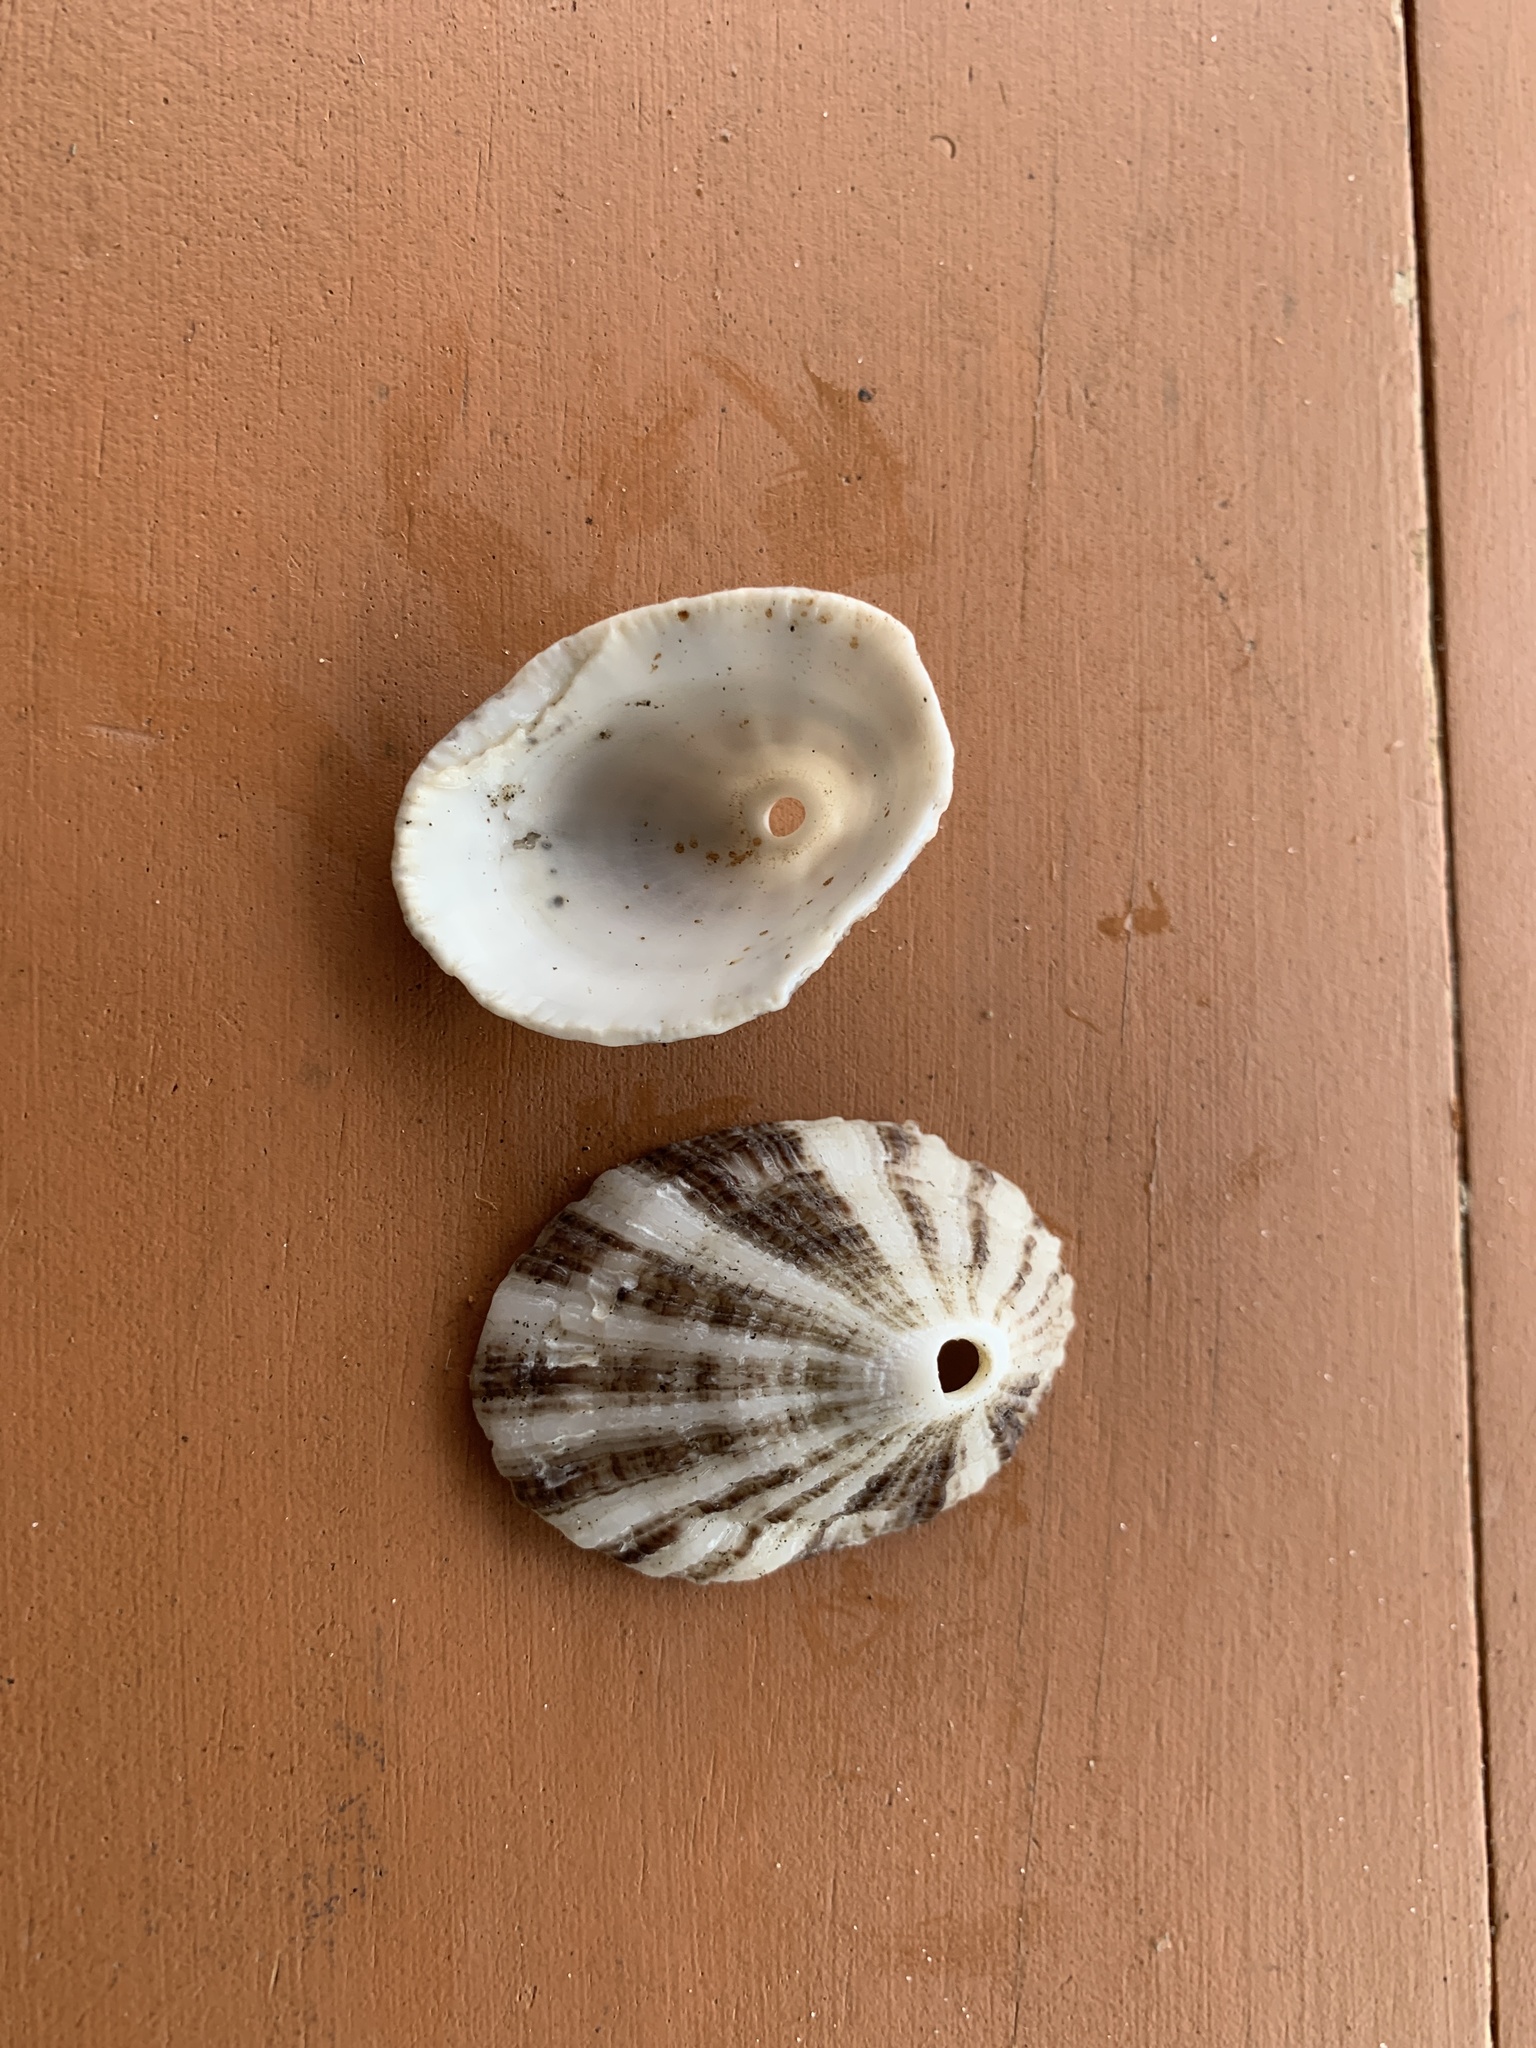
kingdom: Animalia
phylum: Mollusca
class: Gastropoda
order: Lepetellida
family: Fissurellidae
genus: Diodora
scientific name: Diodora aspera
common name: Rough keyhole limpet
